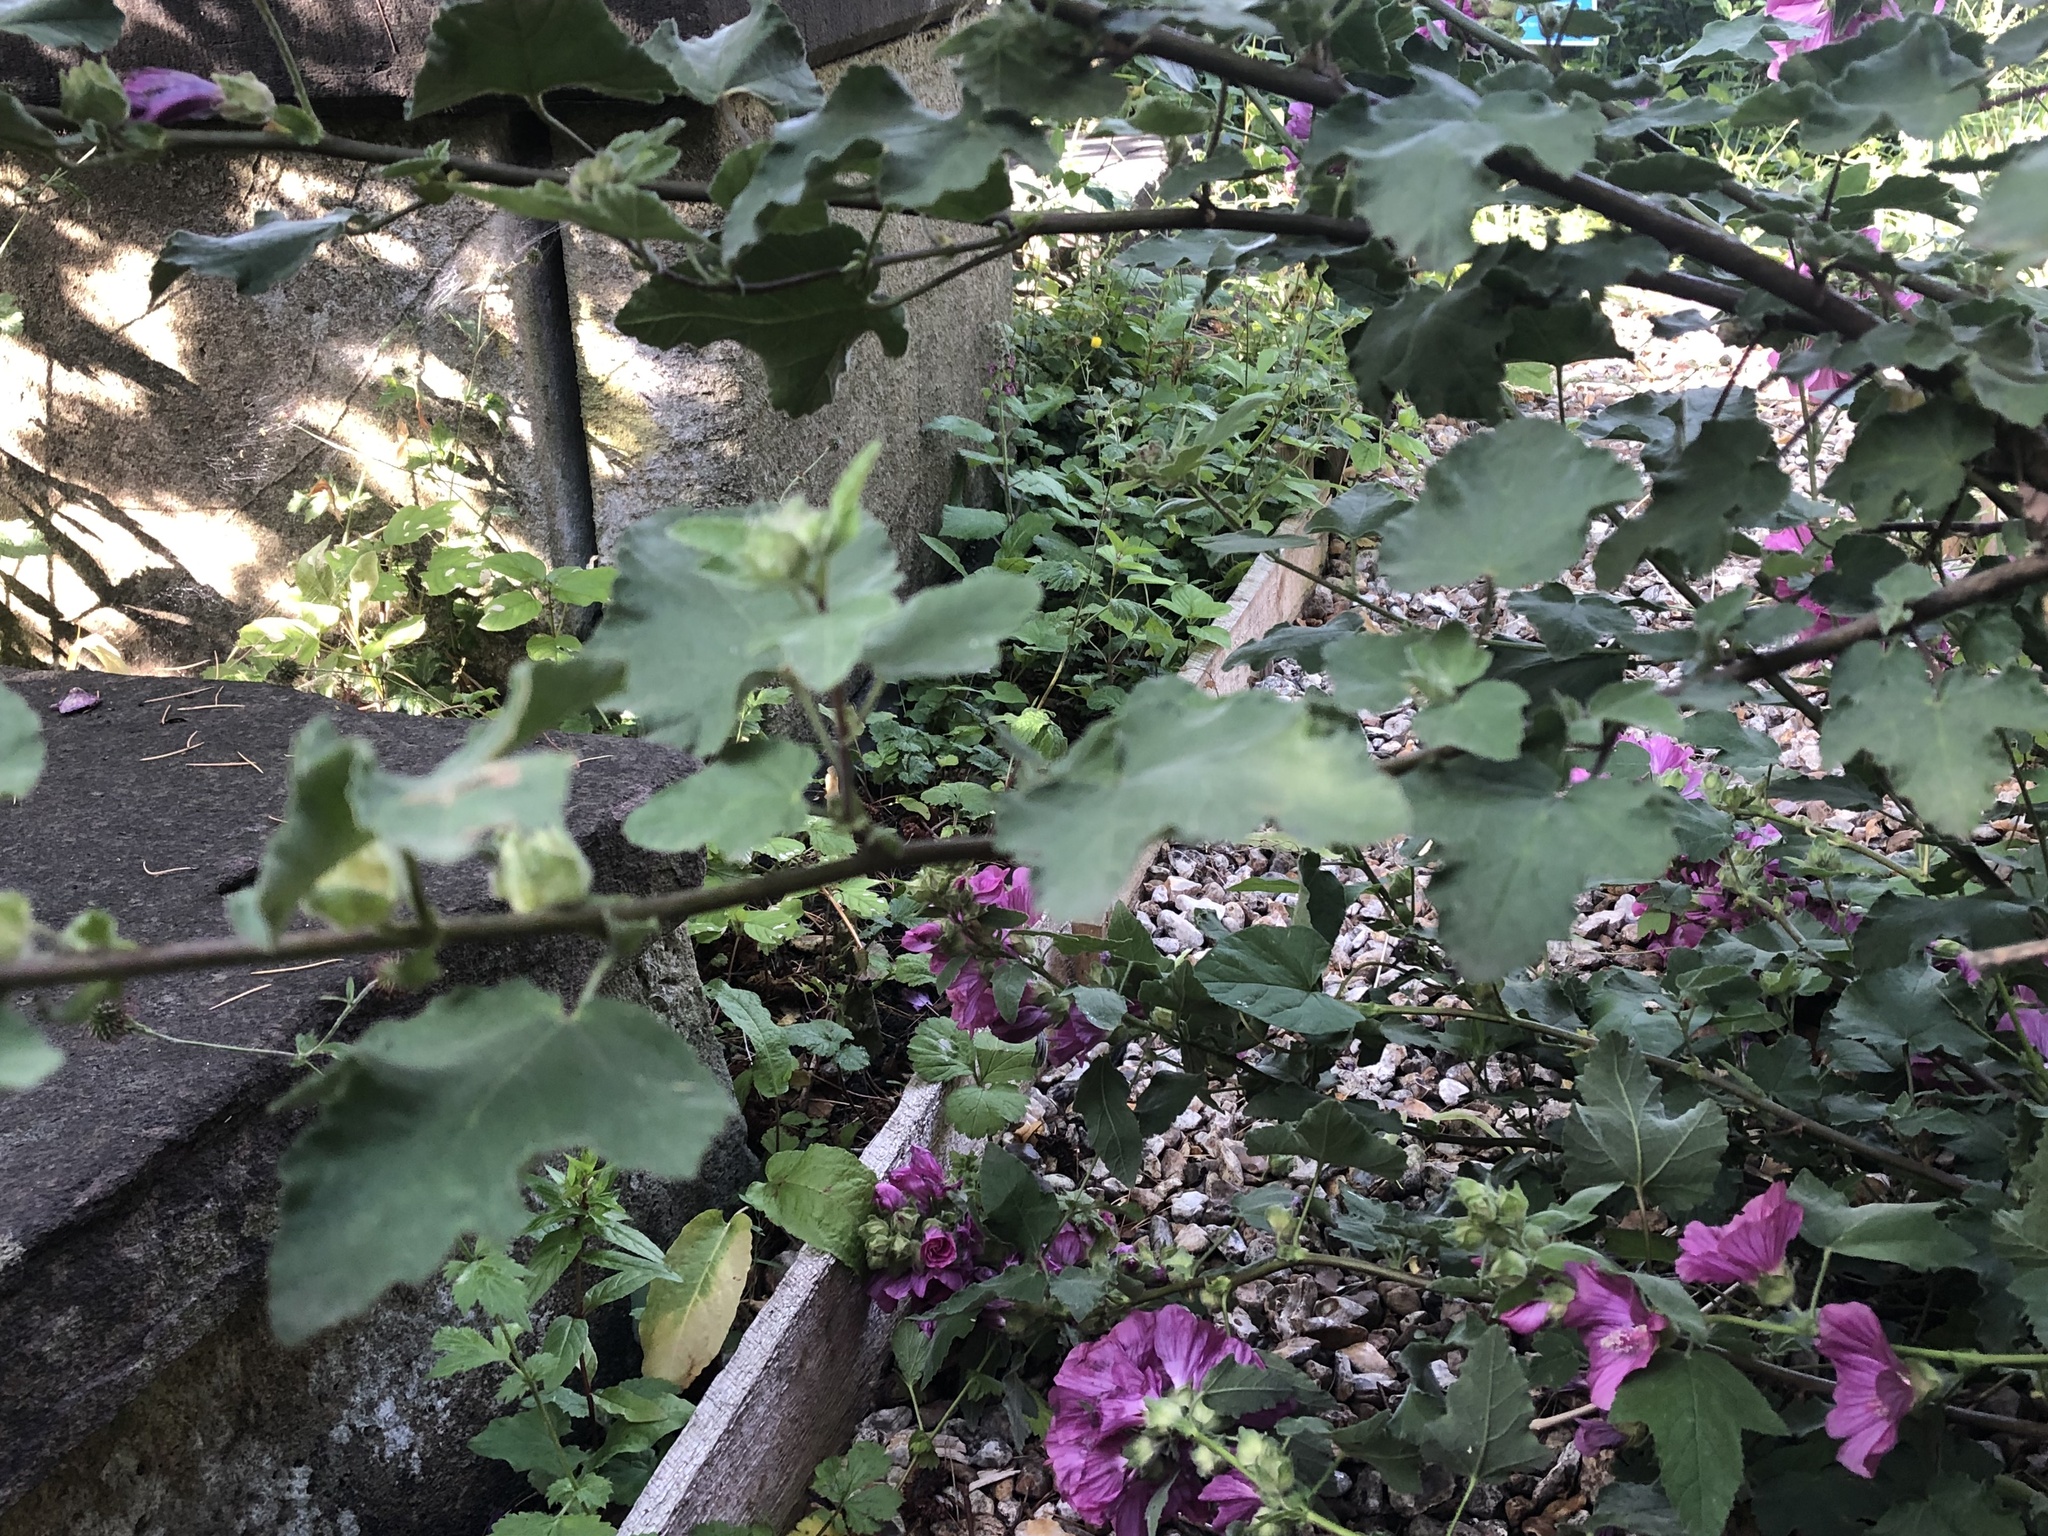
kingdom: Plantae
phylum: Tracheophyta
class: Magnoliopsida
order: Malvales
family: Malvaceae
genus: Malva
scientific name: Malva clementii
